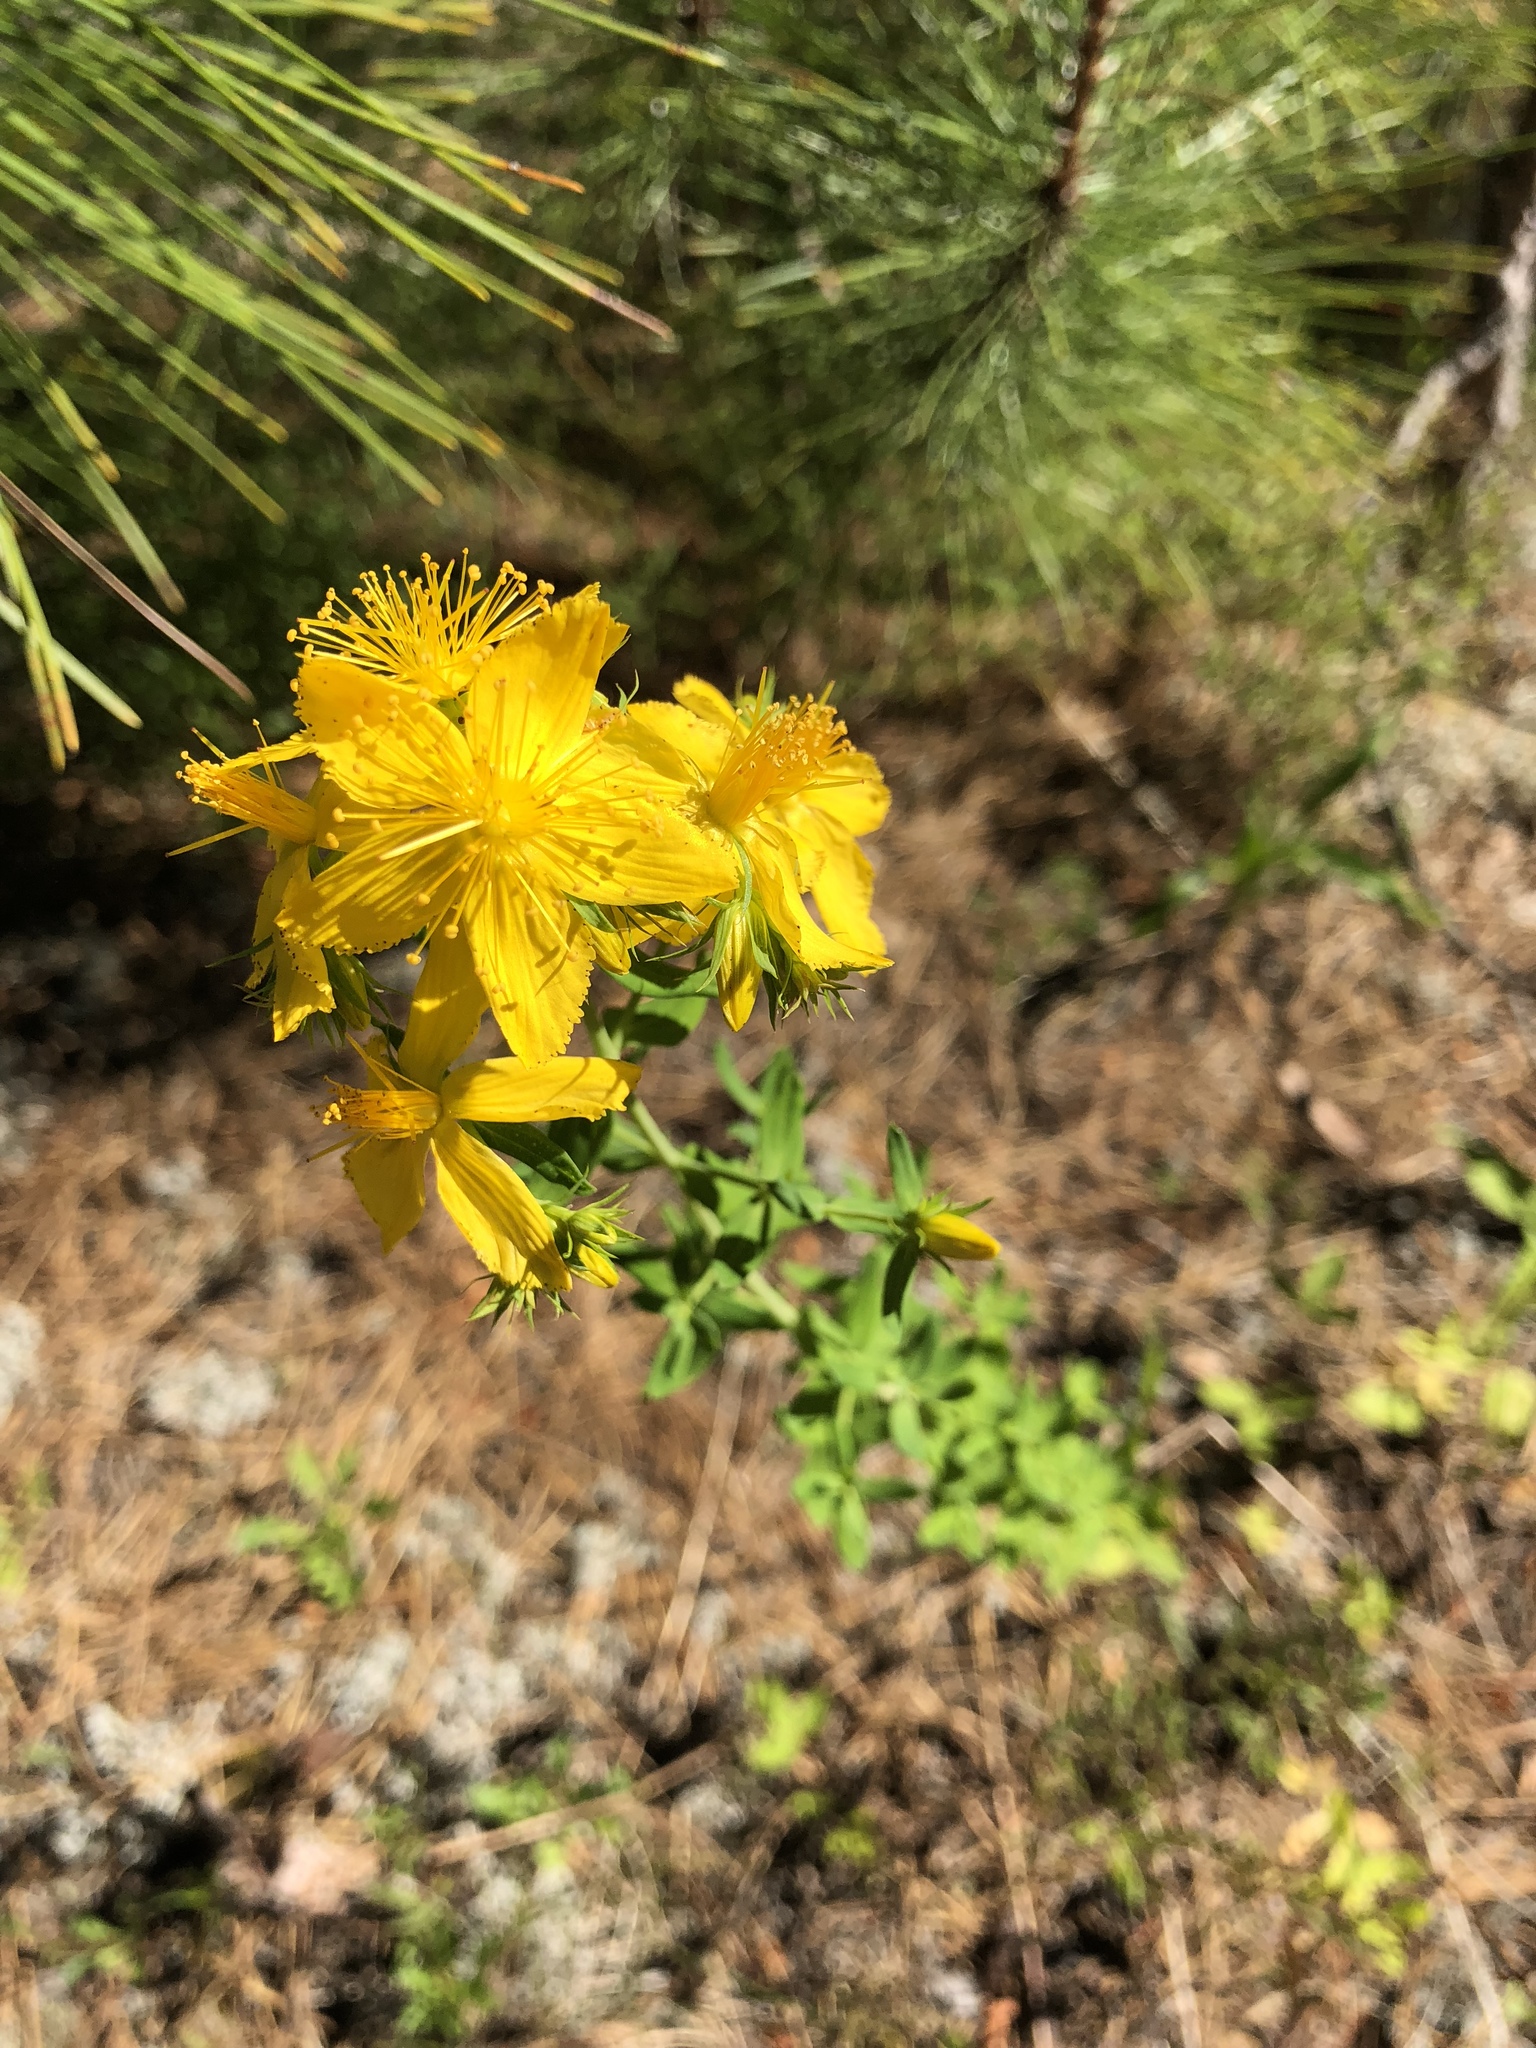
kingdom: Plantae
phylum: Tracheophyta
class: Magnoliopsida
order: Malpighiales
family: Hypericaceae
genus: Hypericum
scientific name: Hypericum perforatum
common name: Common st. johnswort
